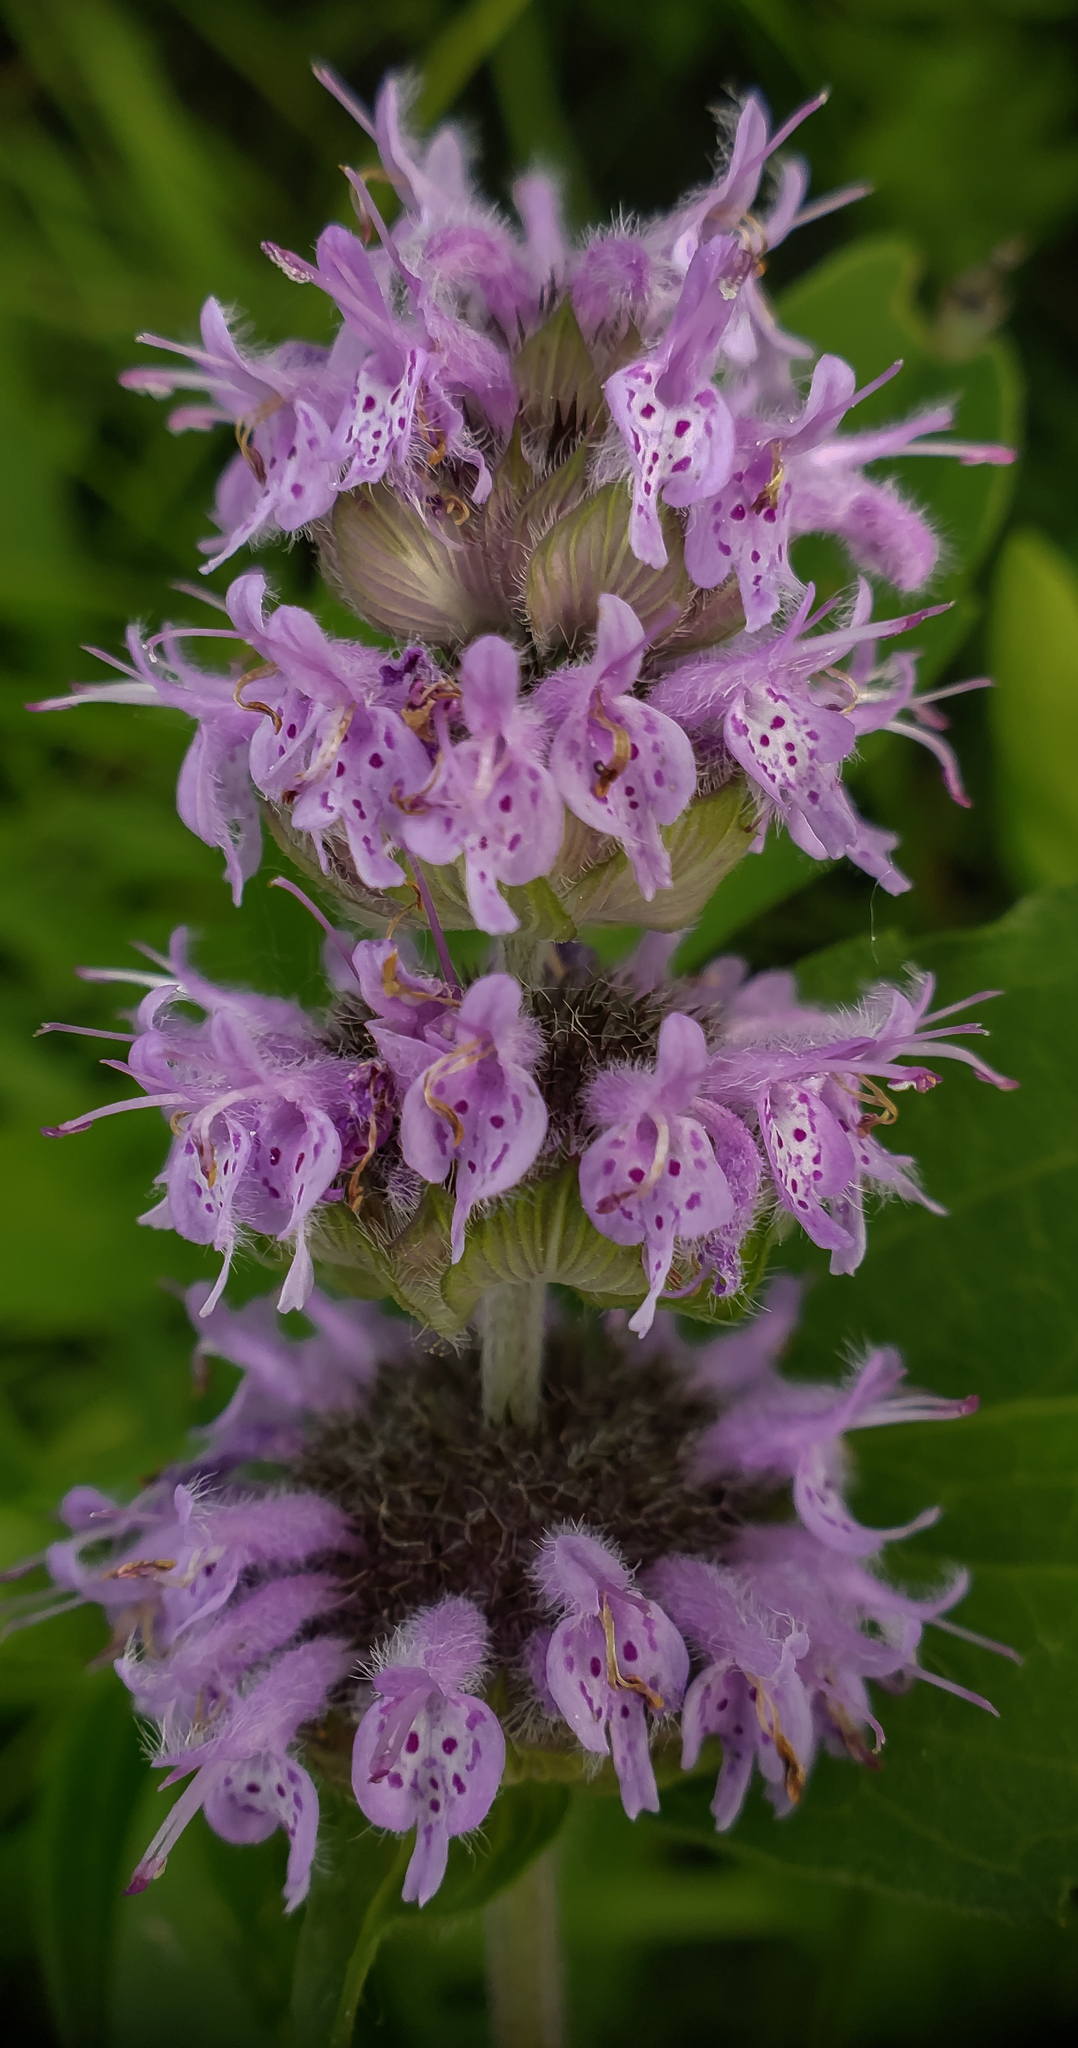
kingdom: Plantae
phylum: Tracheophyta
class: Magnoliopsida
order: Lamiales
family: Lamiaceae
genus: Blephilia
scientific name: Blephilia ciliata
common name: Downy blephilia
